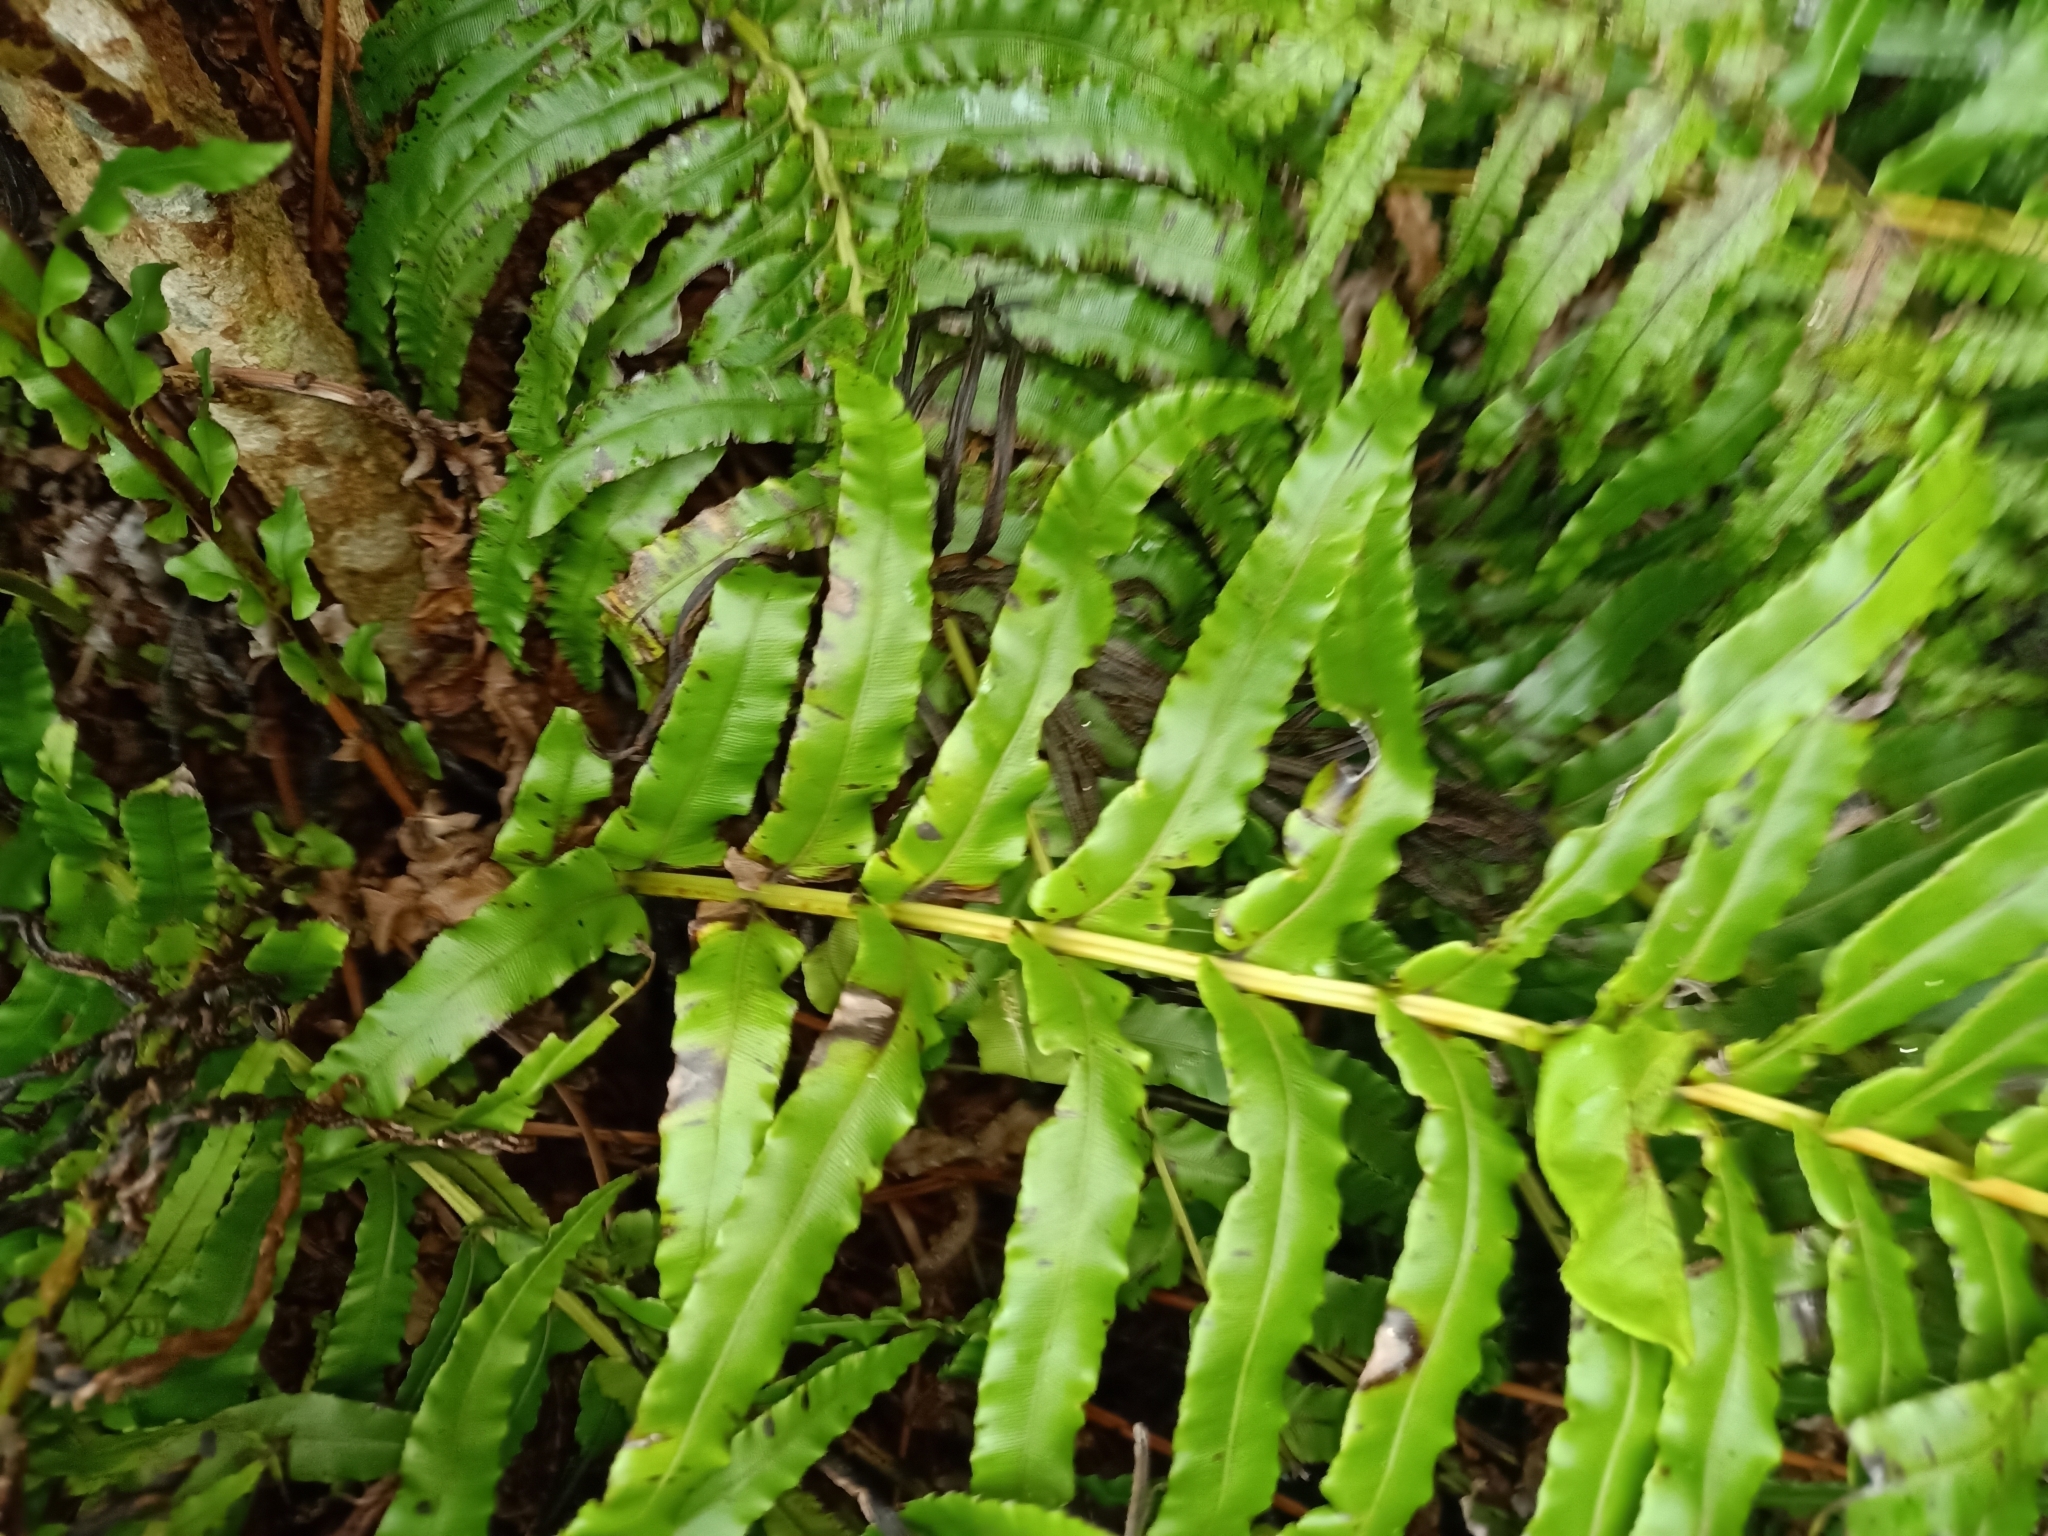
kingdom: Plantae
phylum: Tracheophyta
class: Polypodiopsida
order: Polypodiales
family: Blechnaceae
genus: Parablechnum
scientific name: Parablechnum novae-zelandiae
